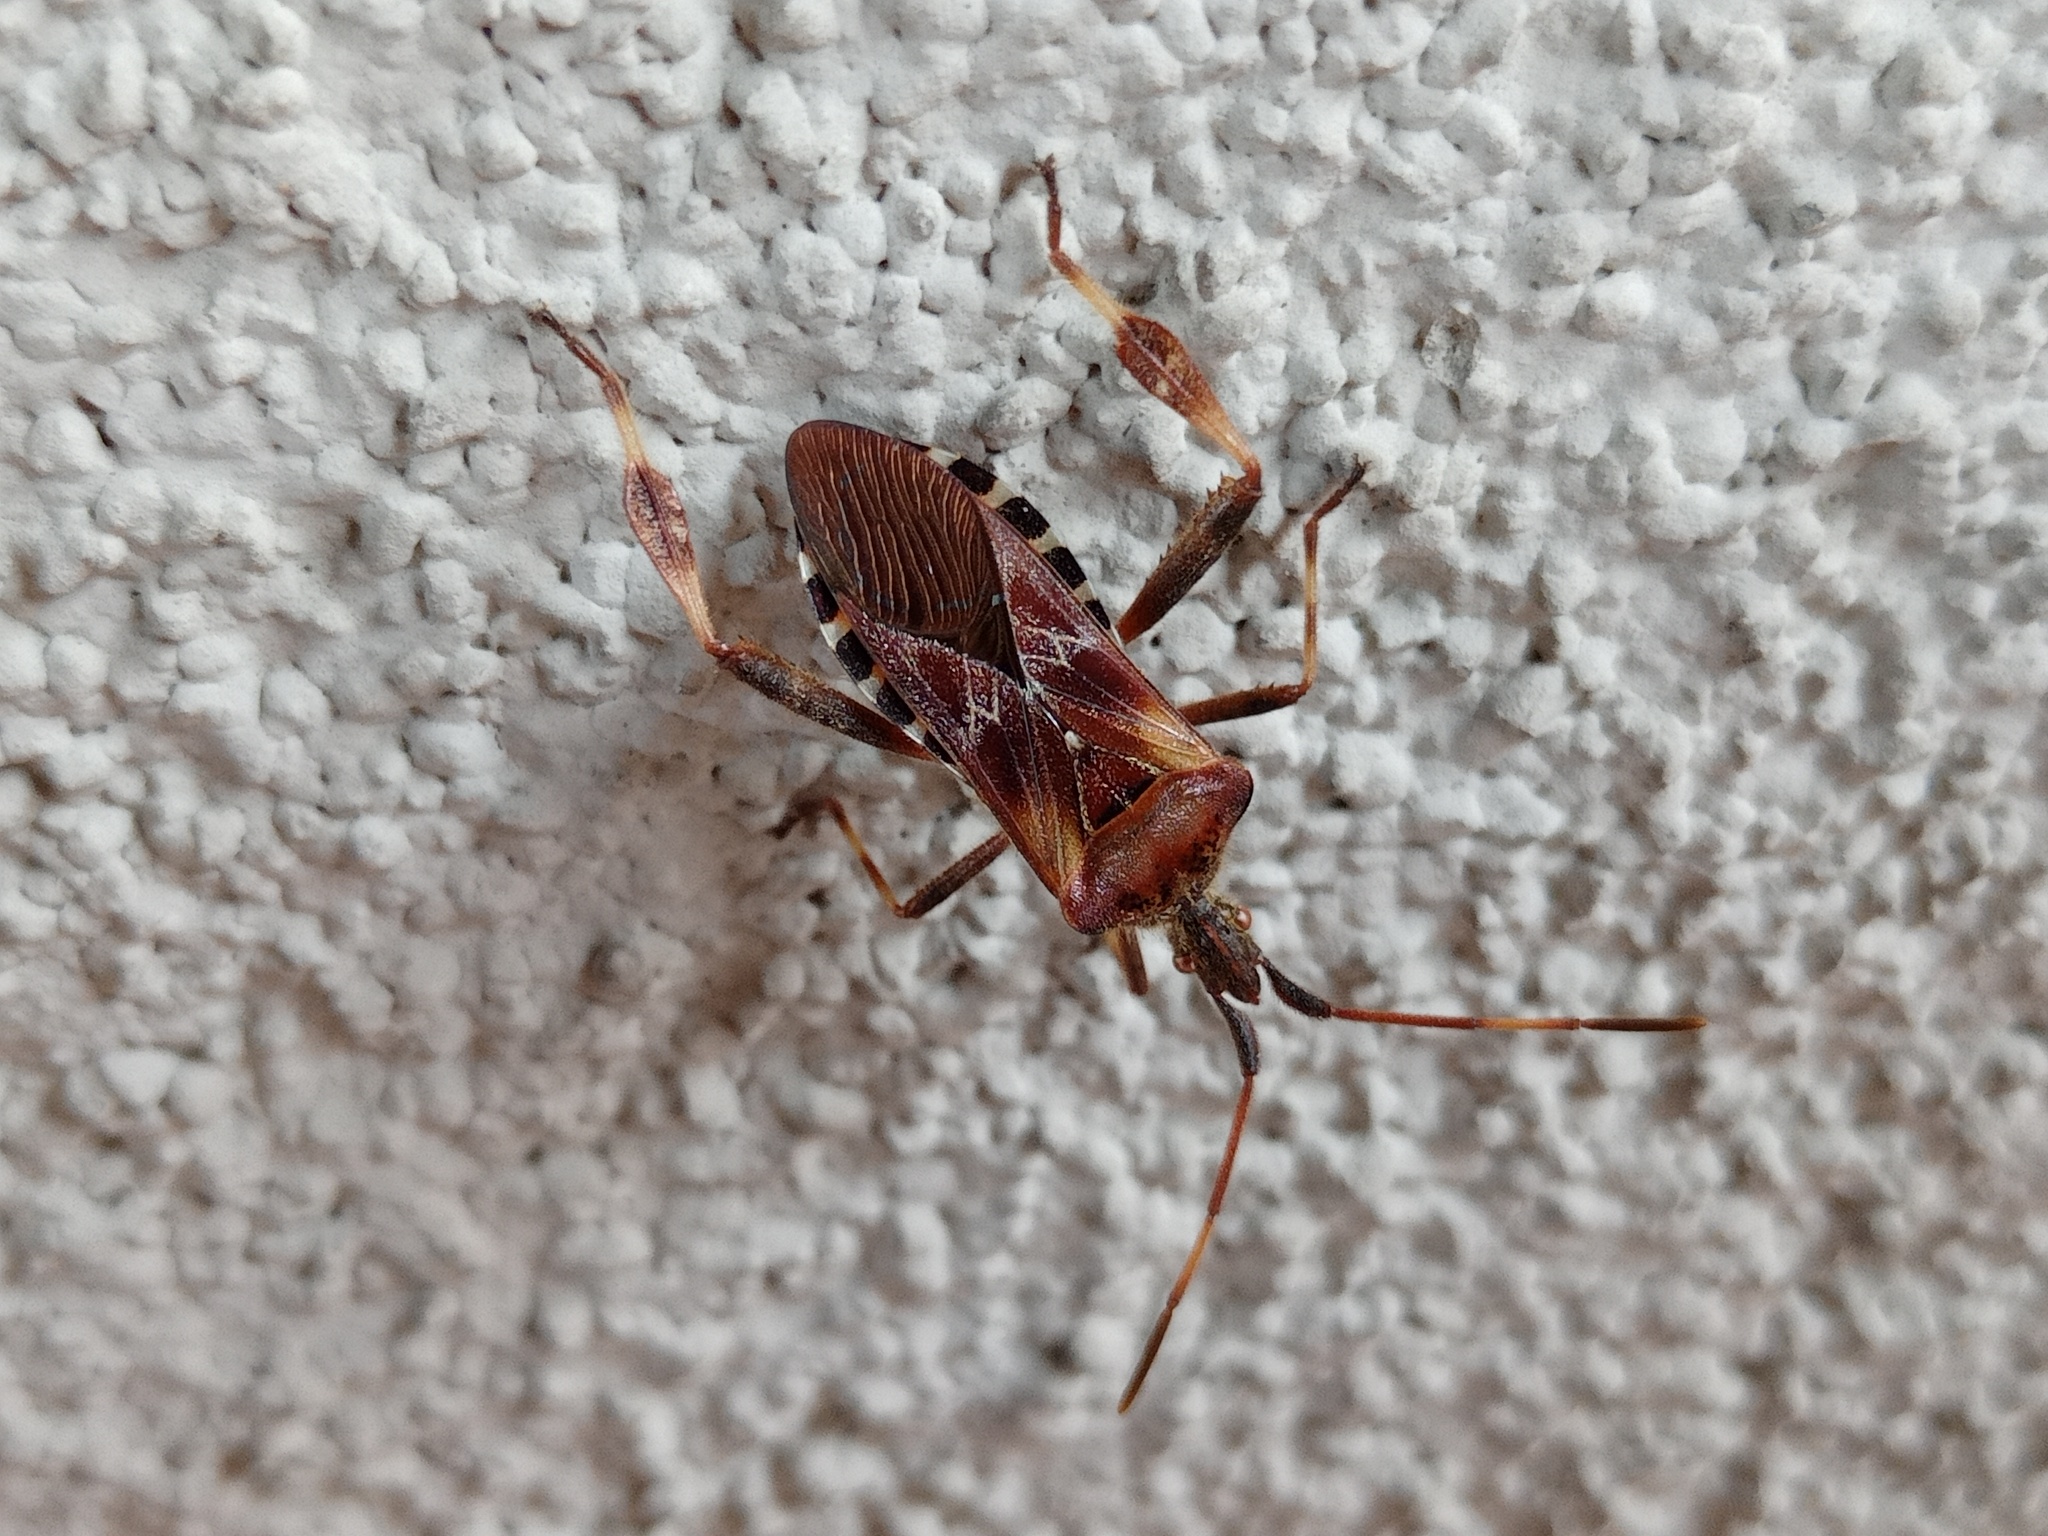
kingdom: Animalia
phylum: Arthropoda
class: Insecta
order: Hemiptera
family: Coreidae
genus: Leptoglossus
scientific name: Leptoglossus occidentalis
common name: Western conifer-seed bug
